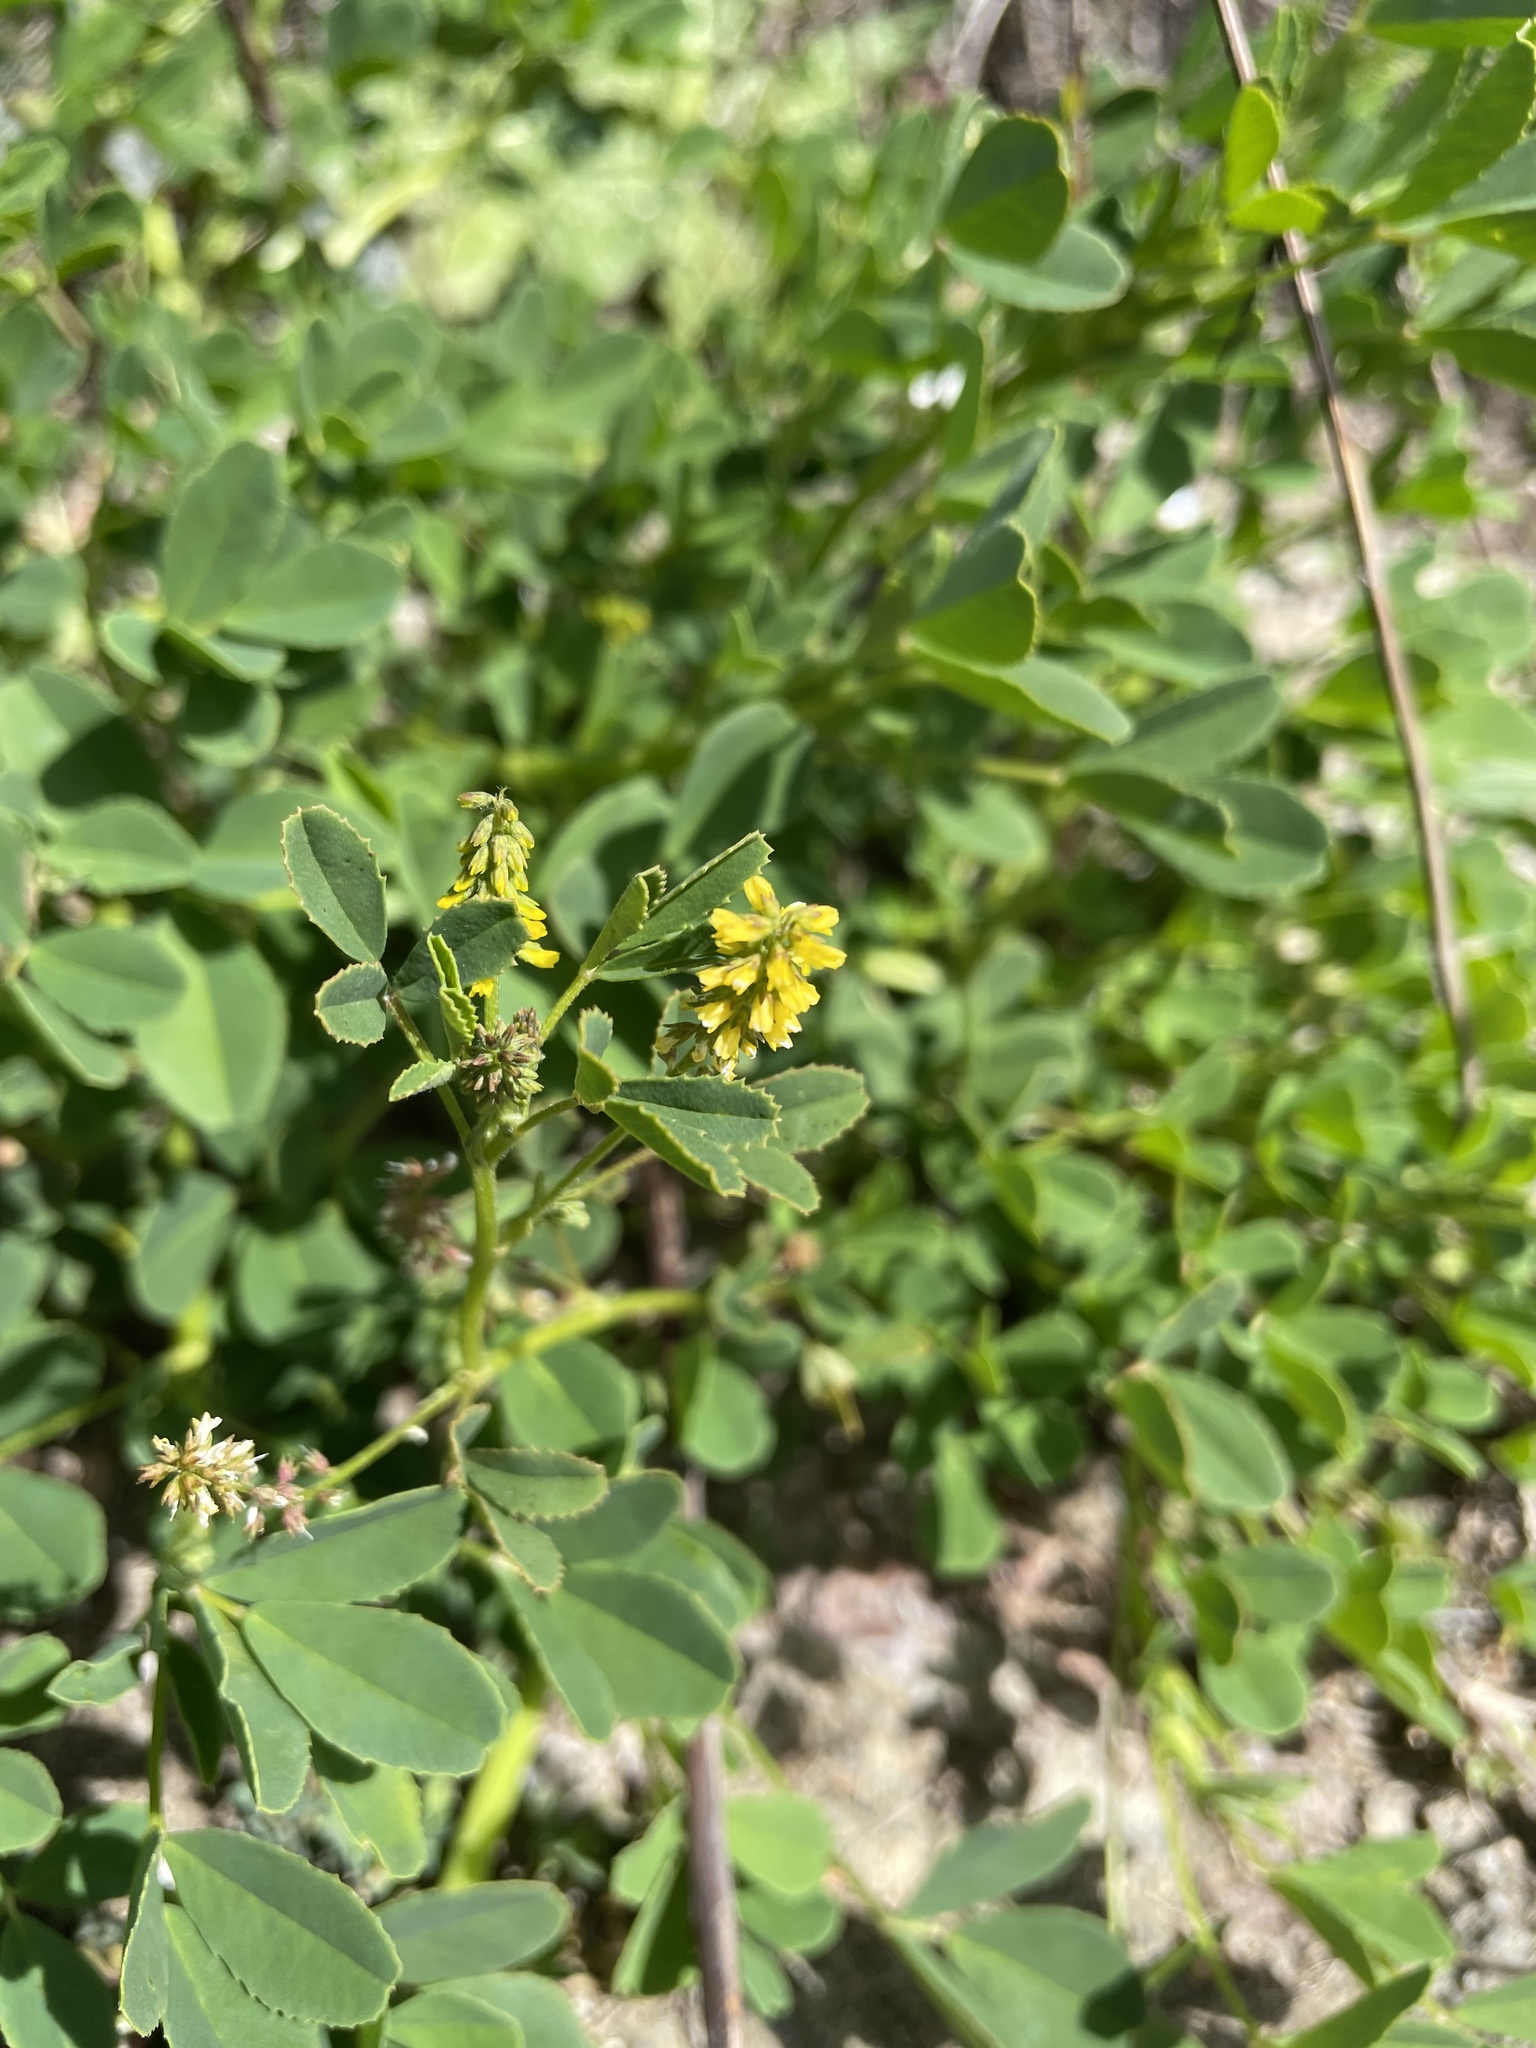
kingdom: Plantae
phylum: Tracheophyta
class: Magnoliopsida
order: Fabales
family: Fabaceae
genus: Melilotus
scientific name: Melilotus indicus
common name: Small melilot
